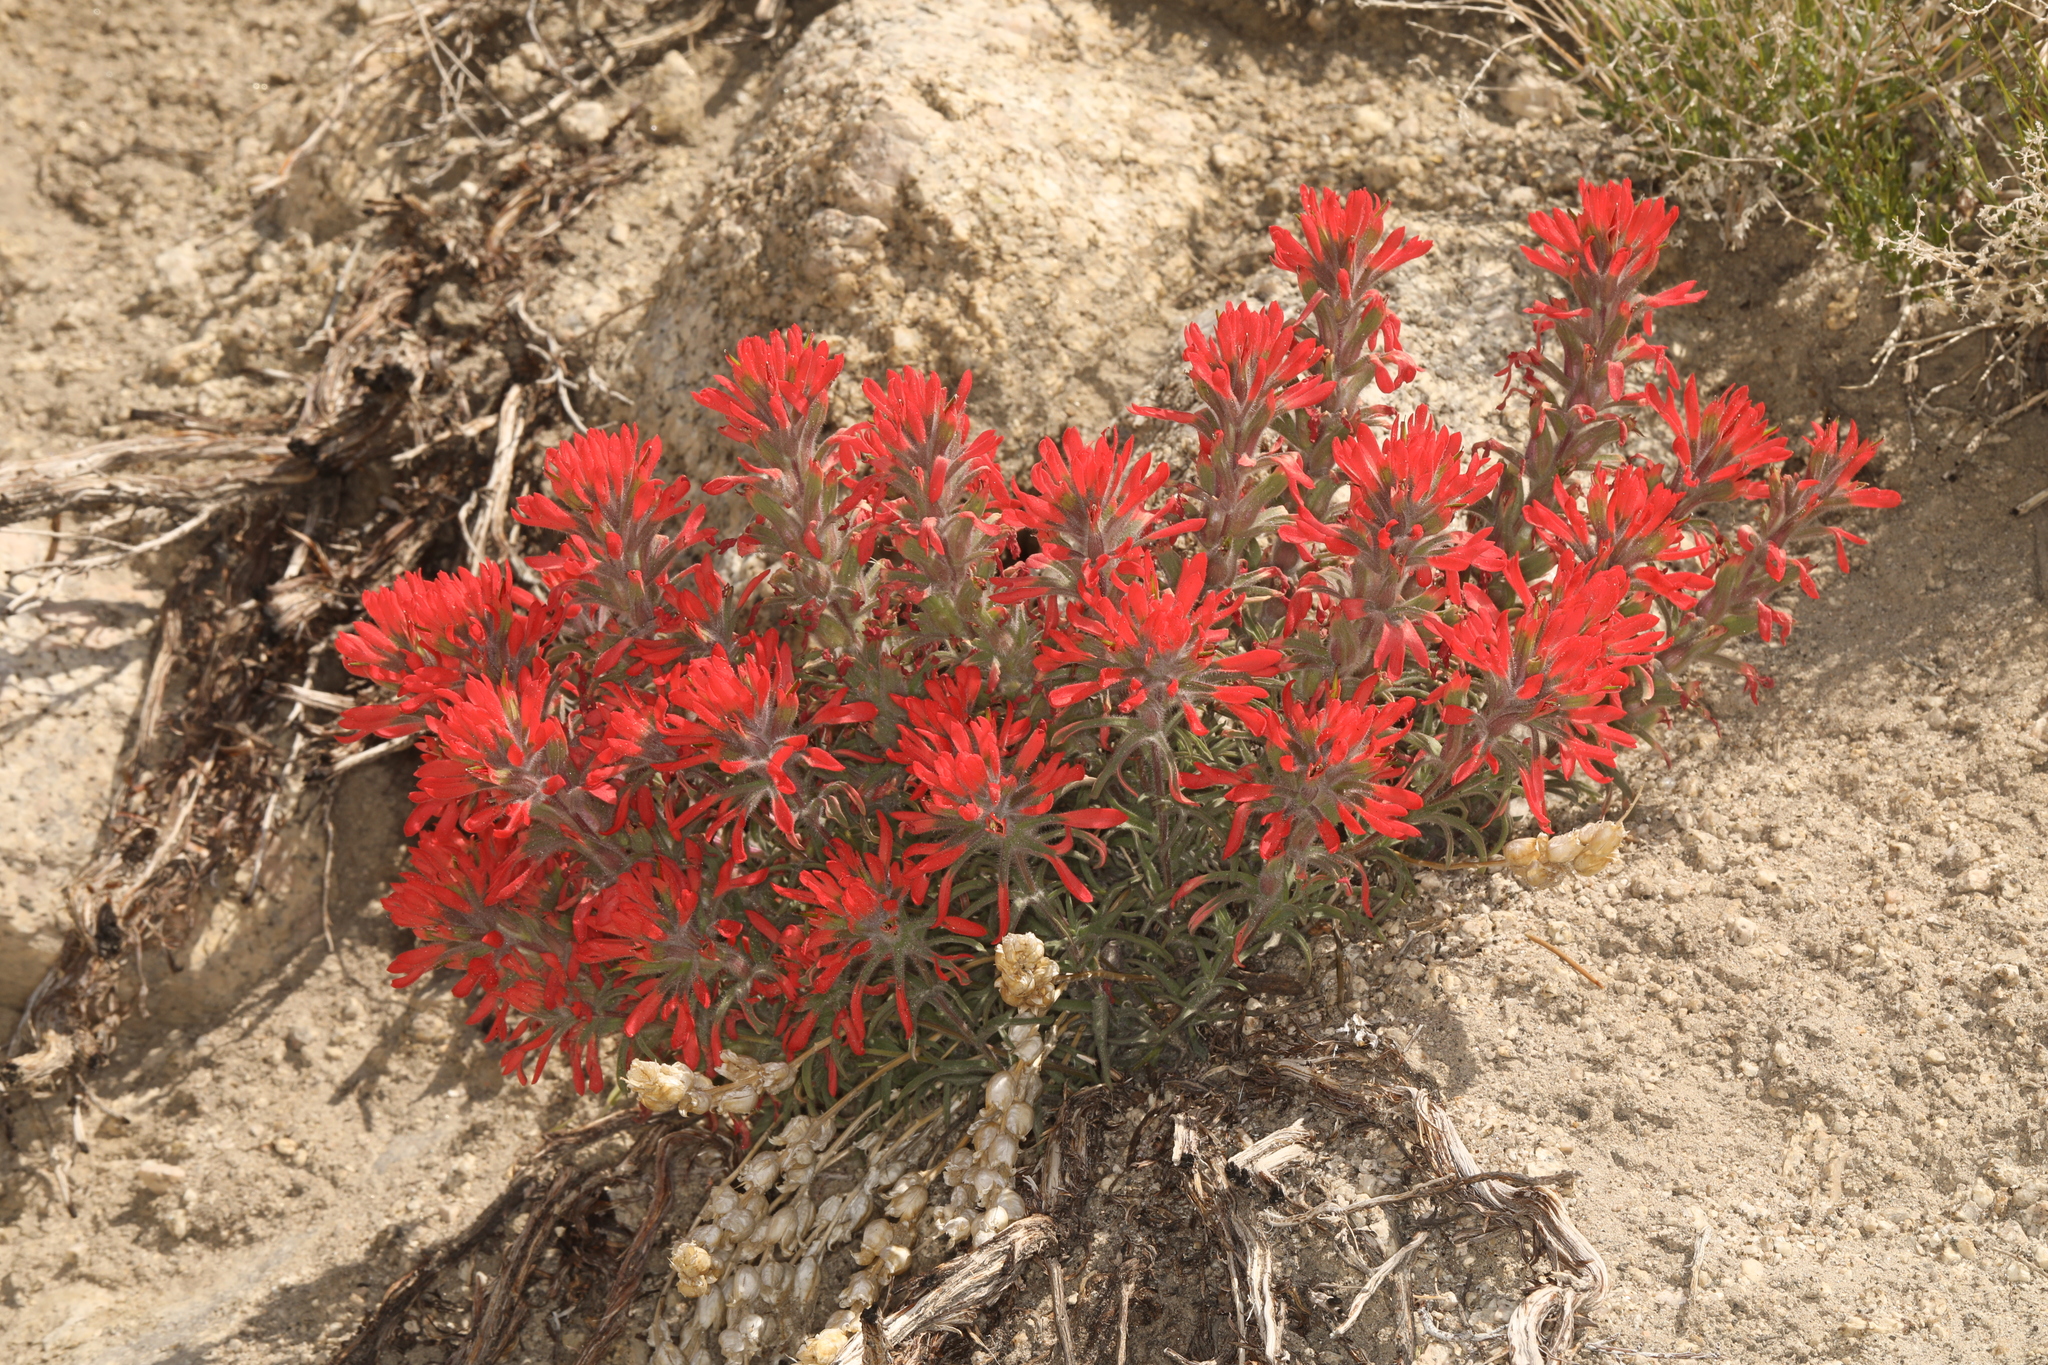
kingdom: Plantae
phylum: Tracheophyta
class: Magnoliopsida
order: Lamiales
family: Orobanchaceae
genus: Castilleja
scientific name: Castilleja chromosa
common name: Desert paintbrush
